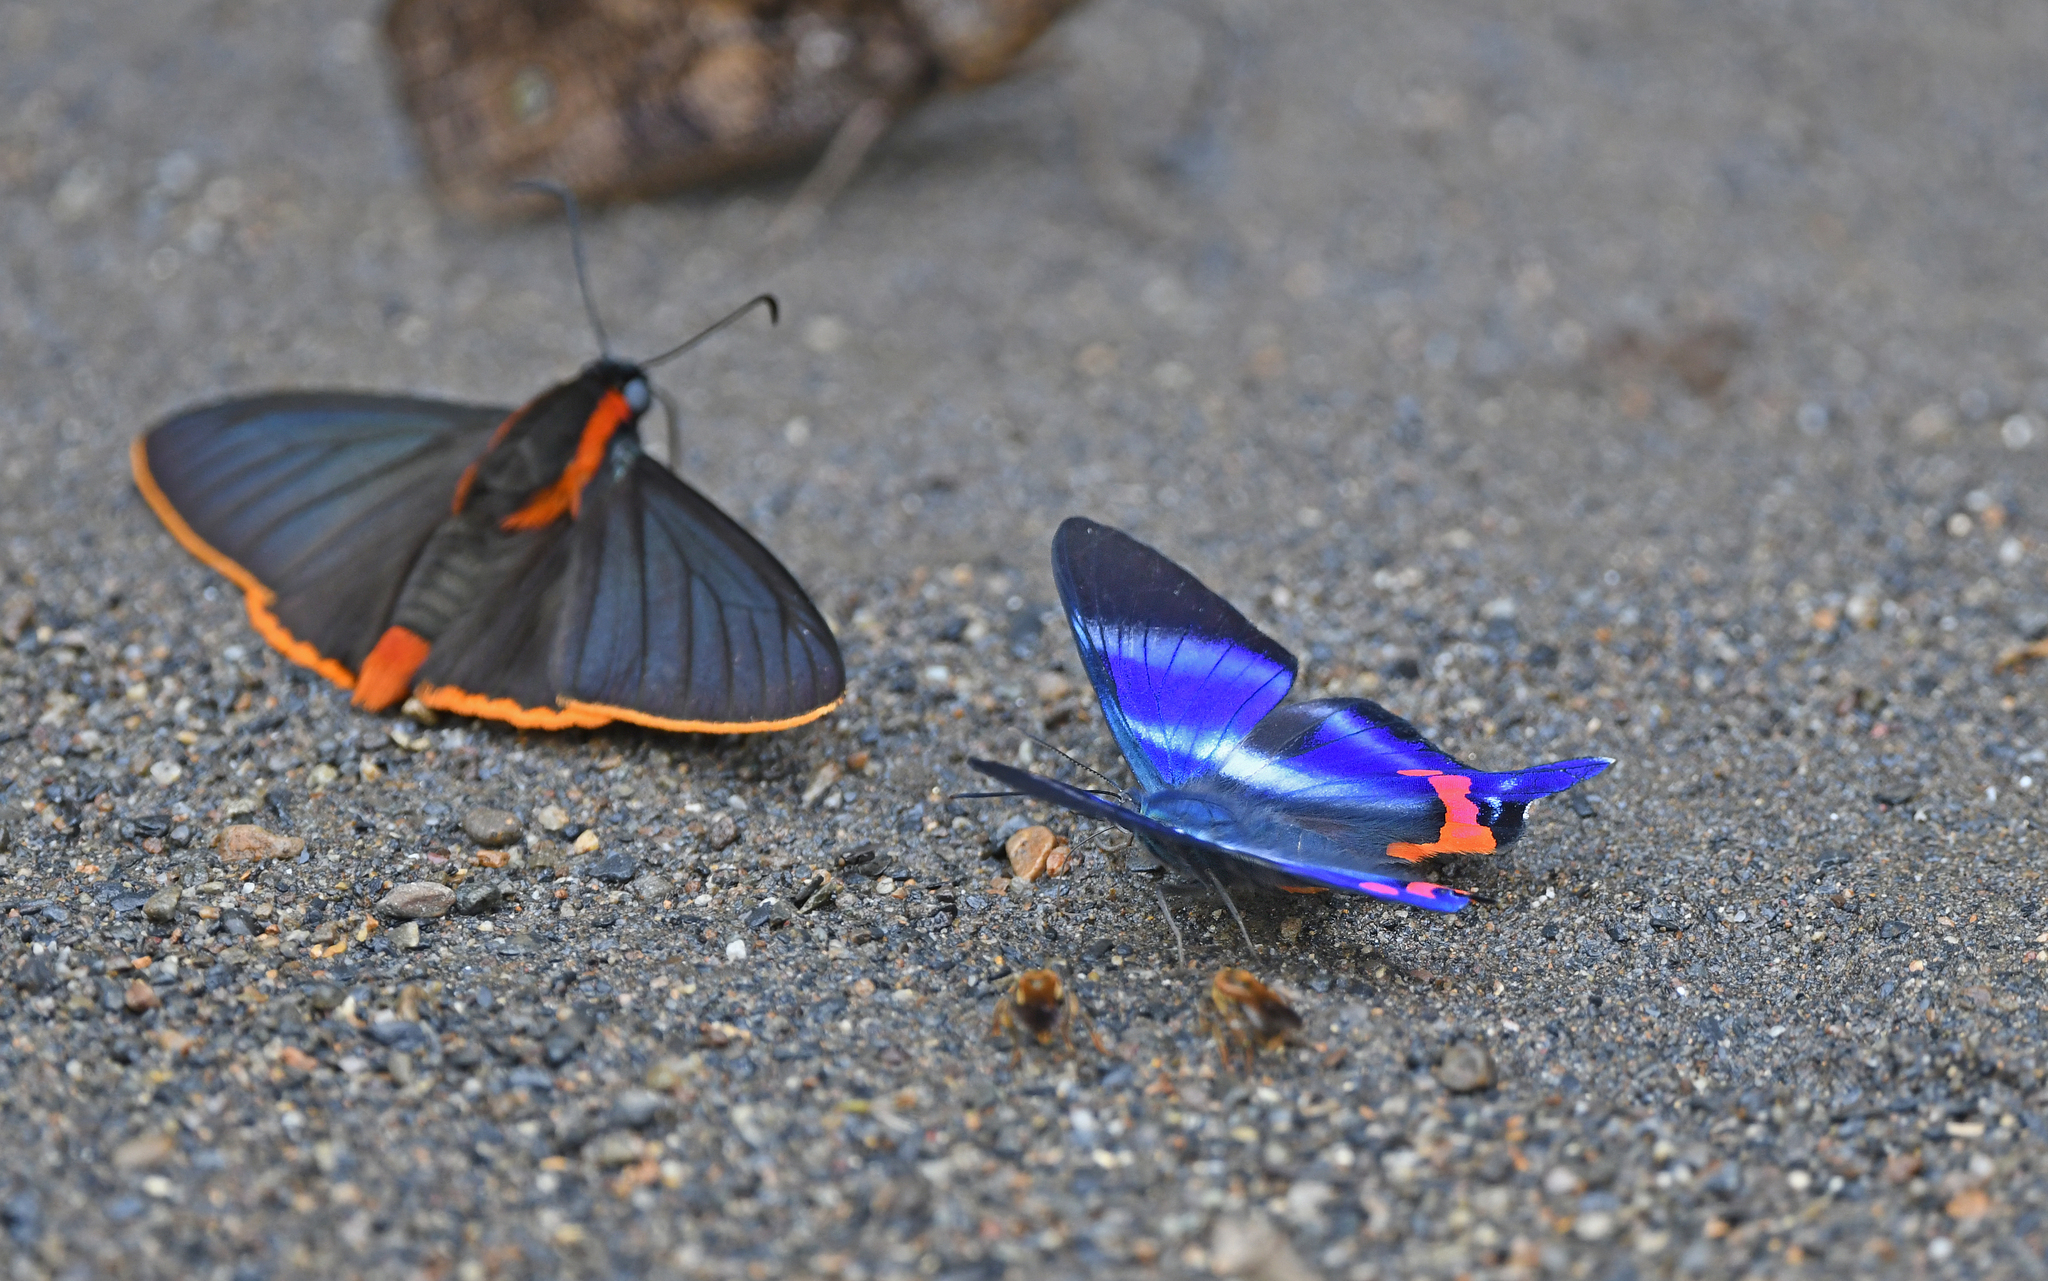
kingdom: Animalia
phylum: Arthropoda
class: Insecta
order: Lepidoptera
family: Riodinidae
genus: Rhetus
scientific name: Rhetus dysonii
